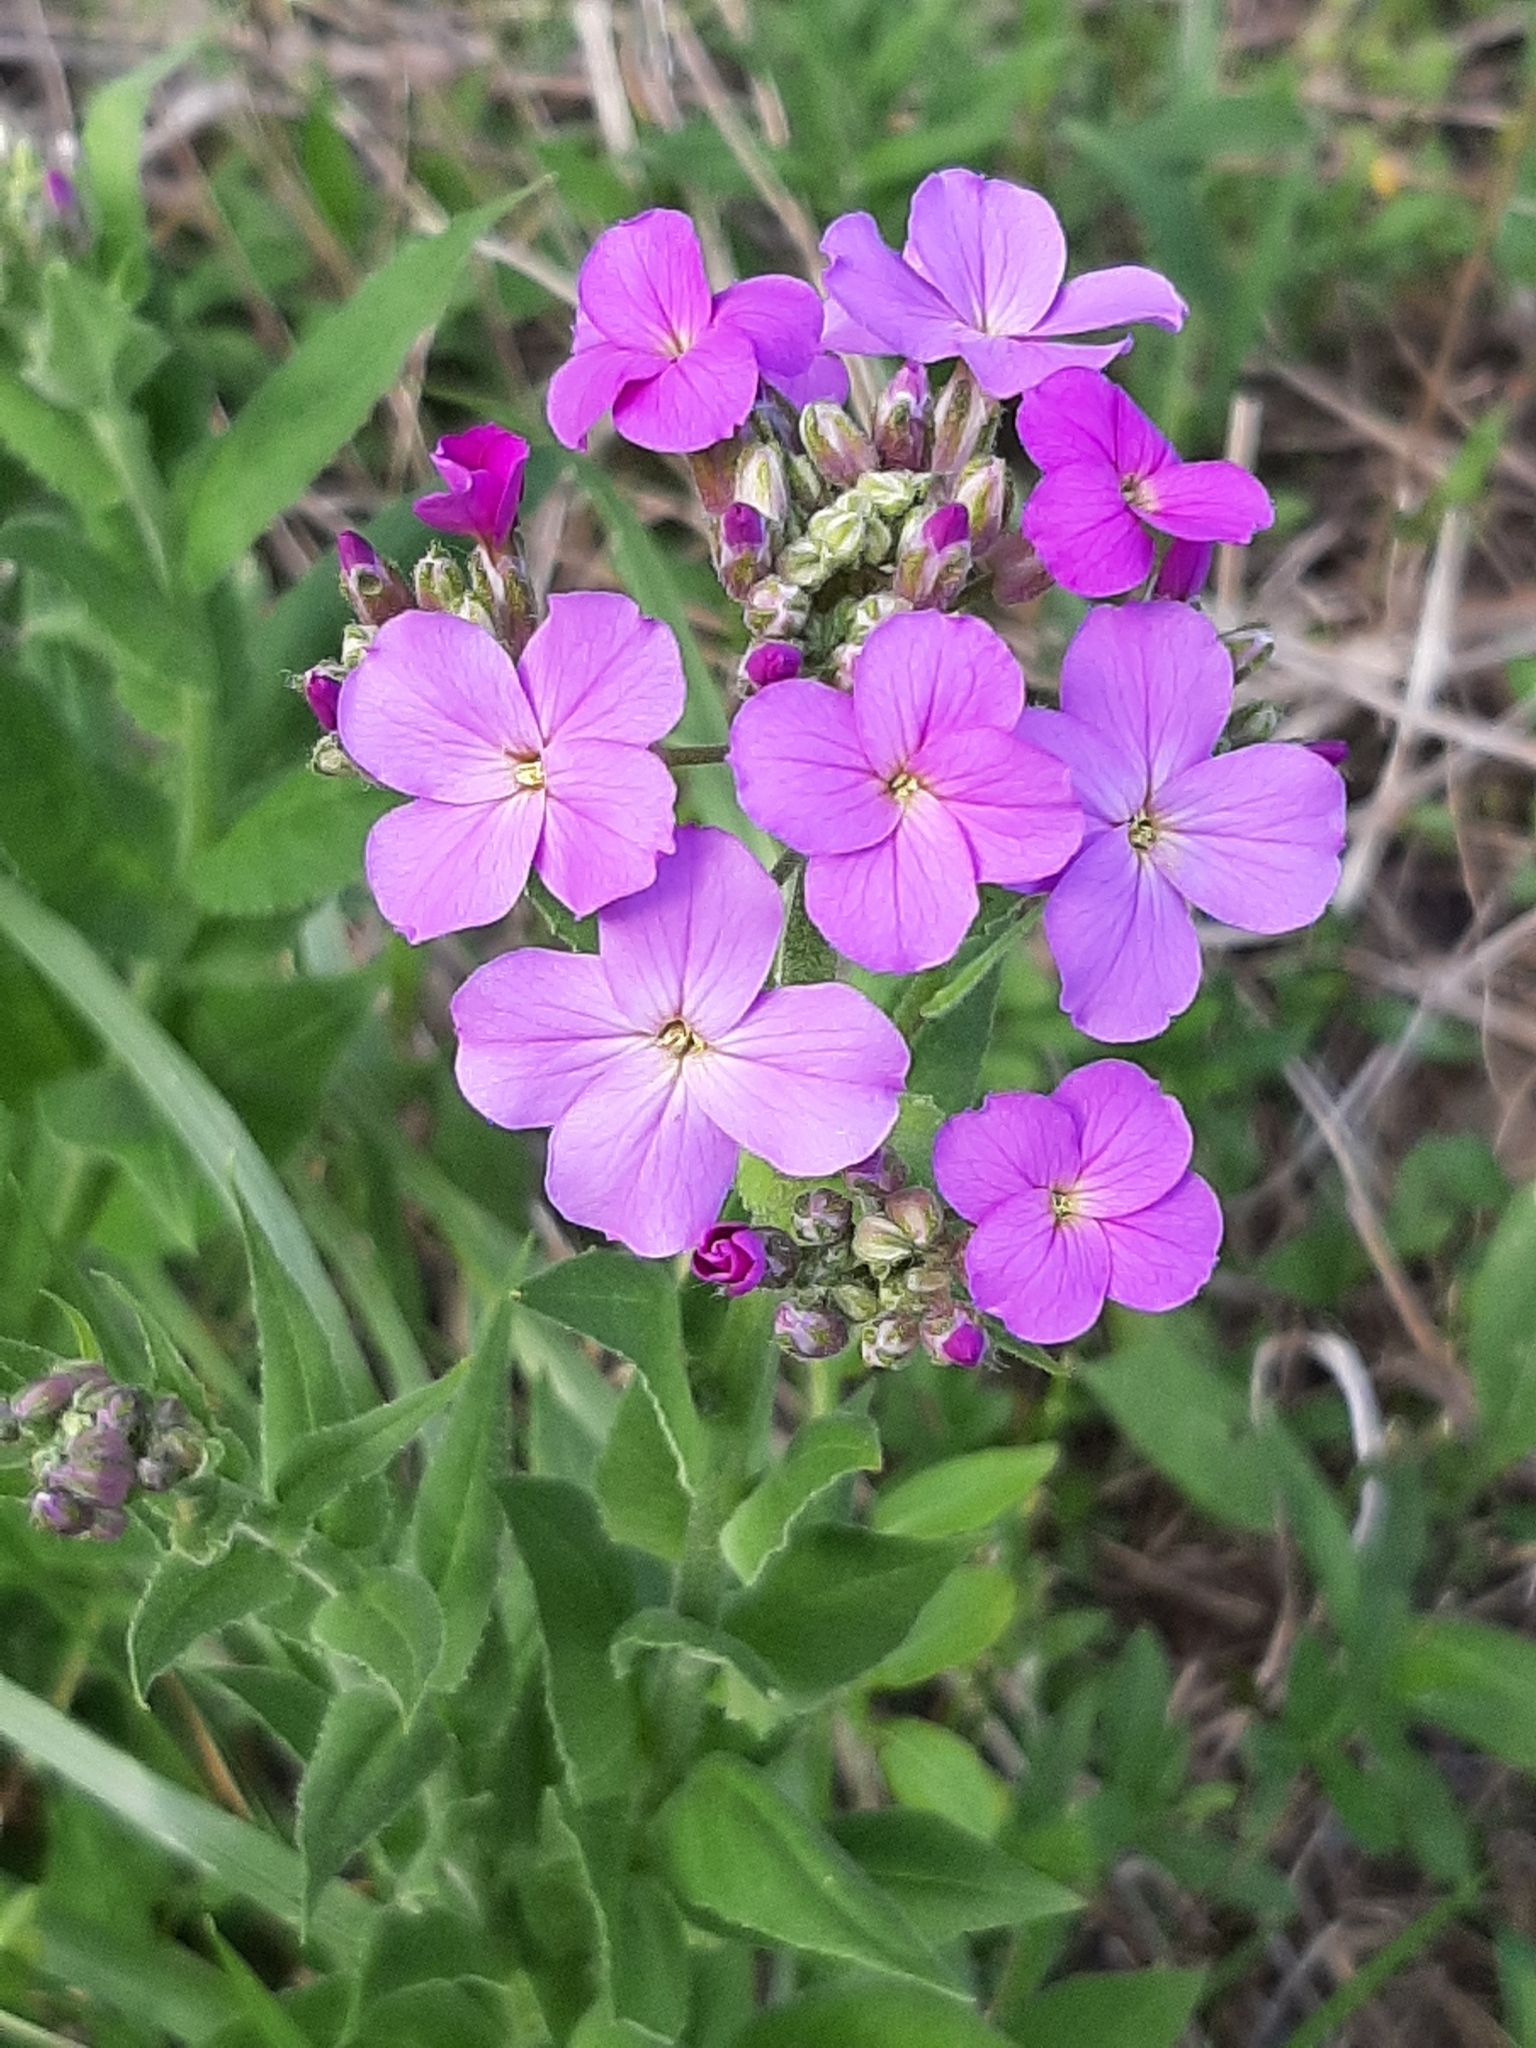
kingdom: Plantae
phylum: Tracheophyta
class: Magnoliopsida
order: Brassicales
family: Brassicaceae
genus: Hesperis
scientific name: Hesperis matronalis
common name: Dame's-violet
